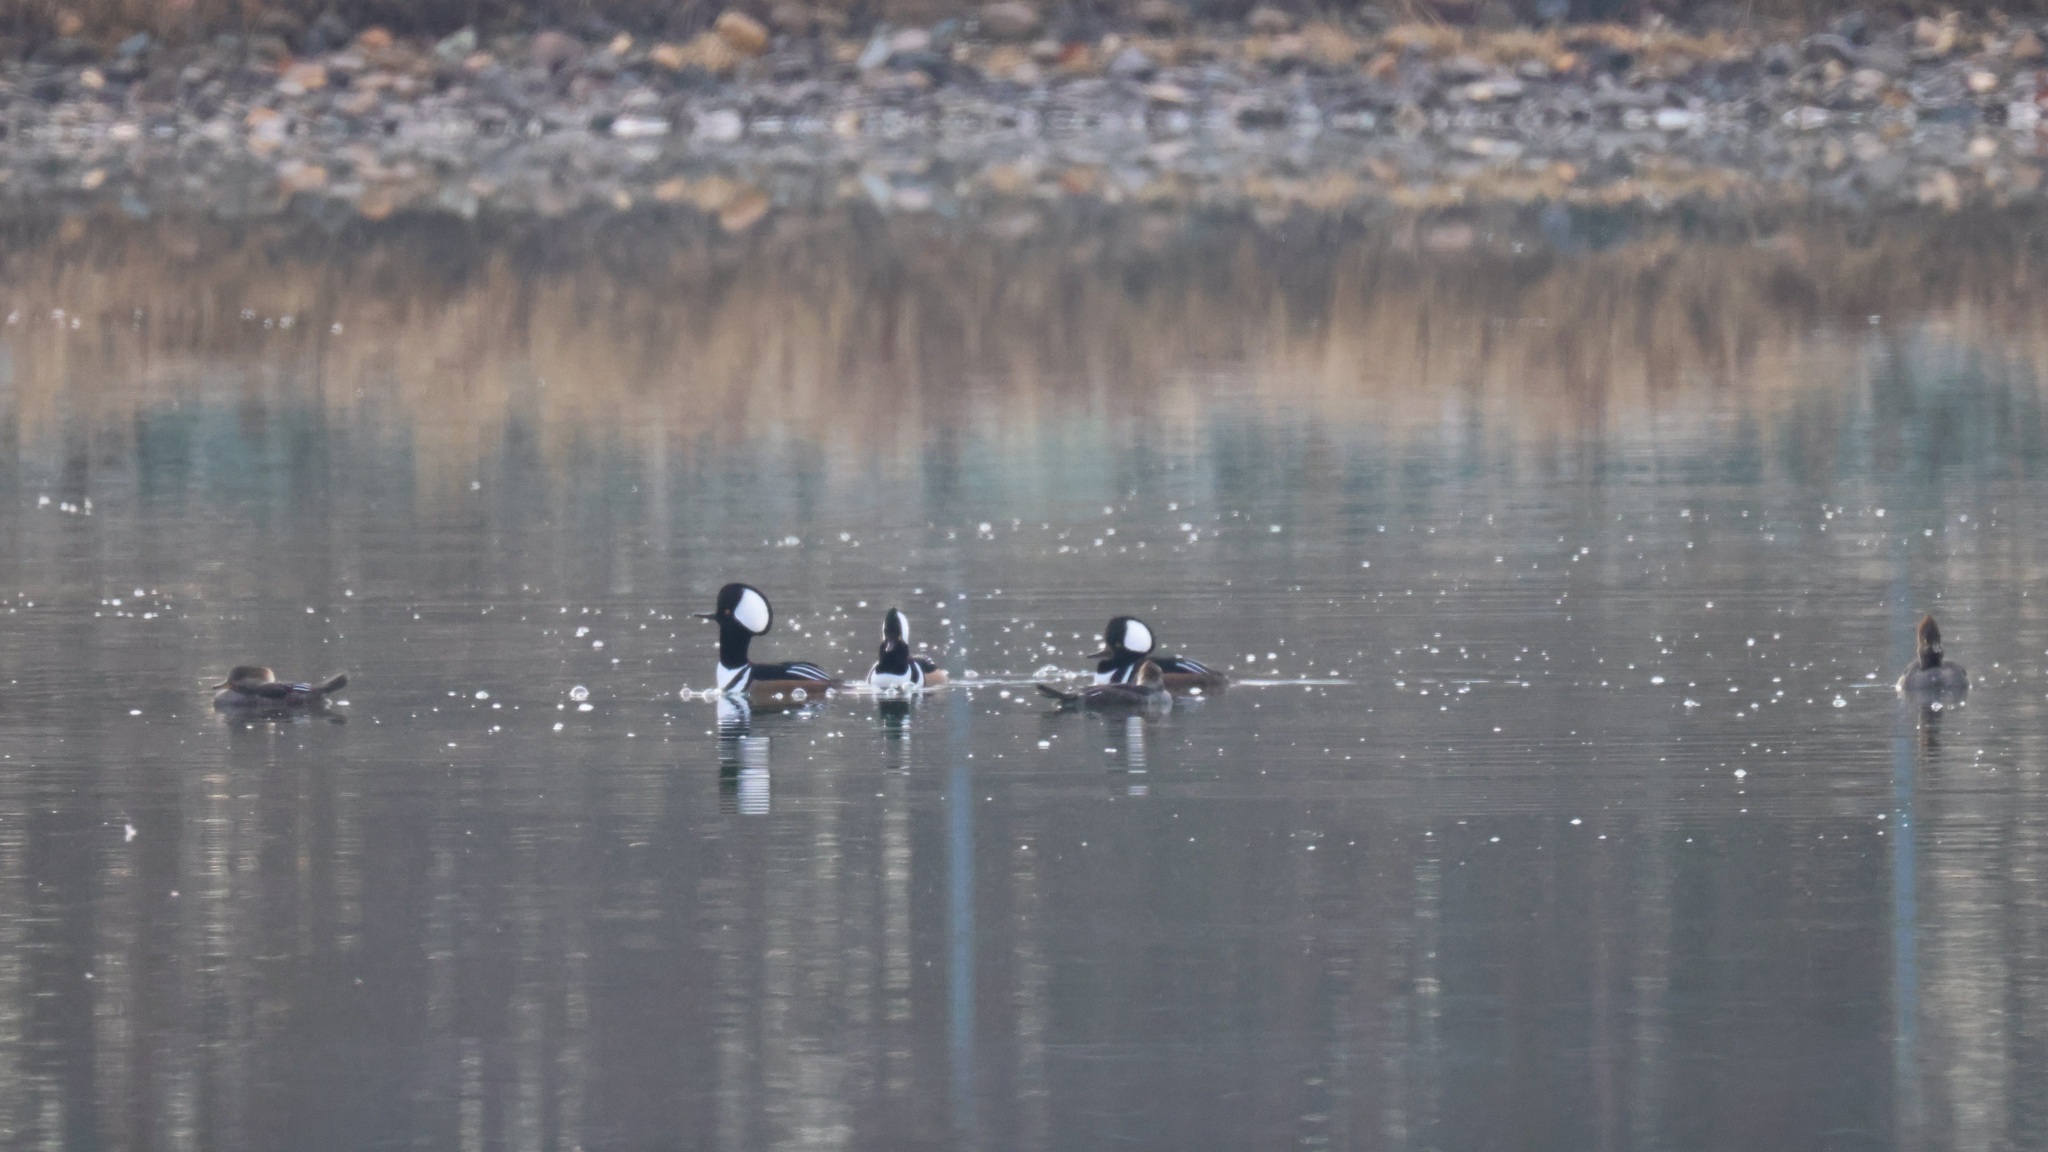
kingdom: Animalia
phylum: Chordata
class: Aves
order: Anseriformes
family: Anatidae
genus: Lophodytes
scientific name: Lophodytes cucullatus
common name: Hooded merganser
